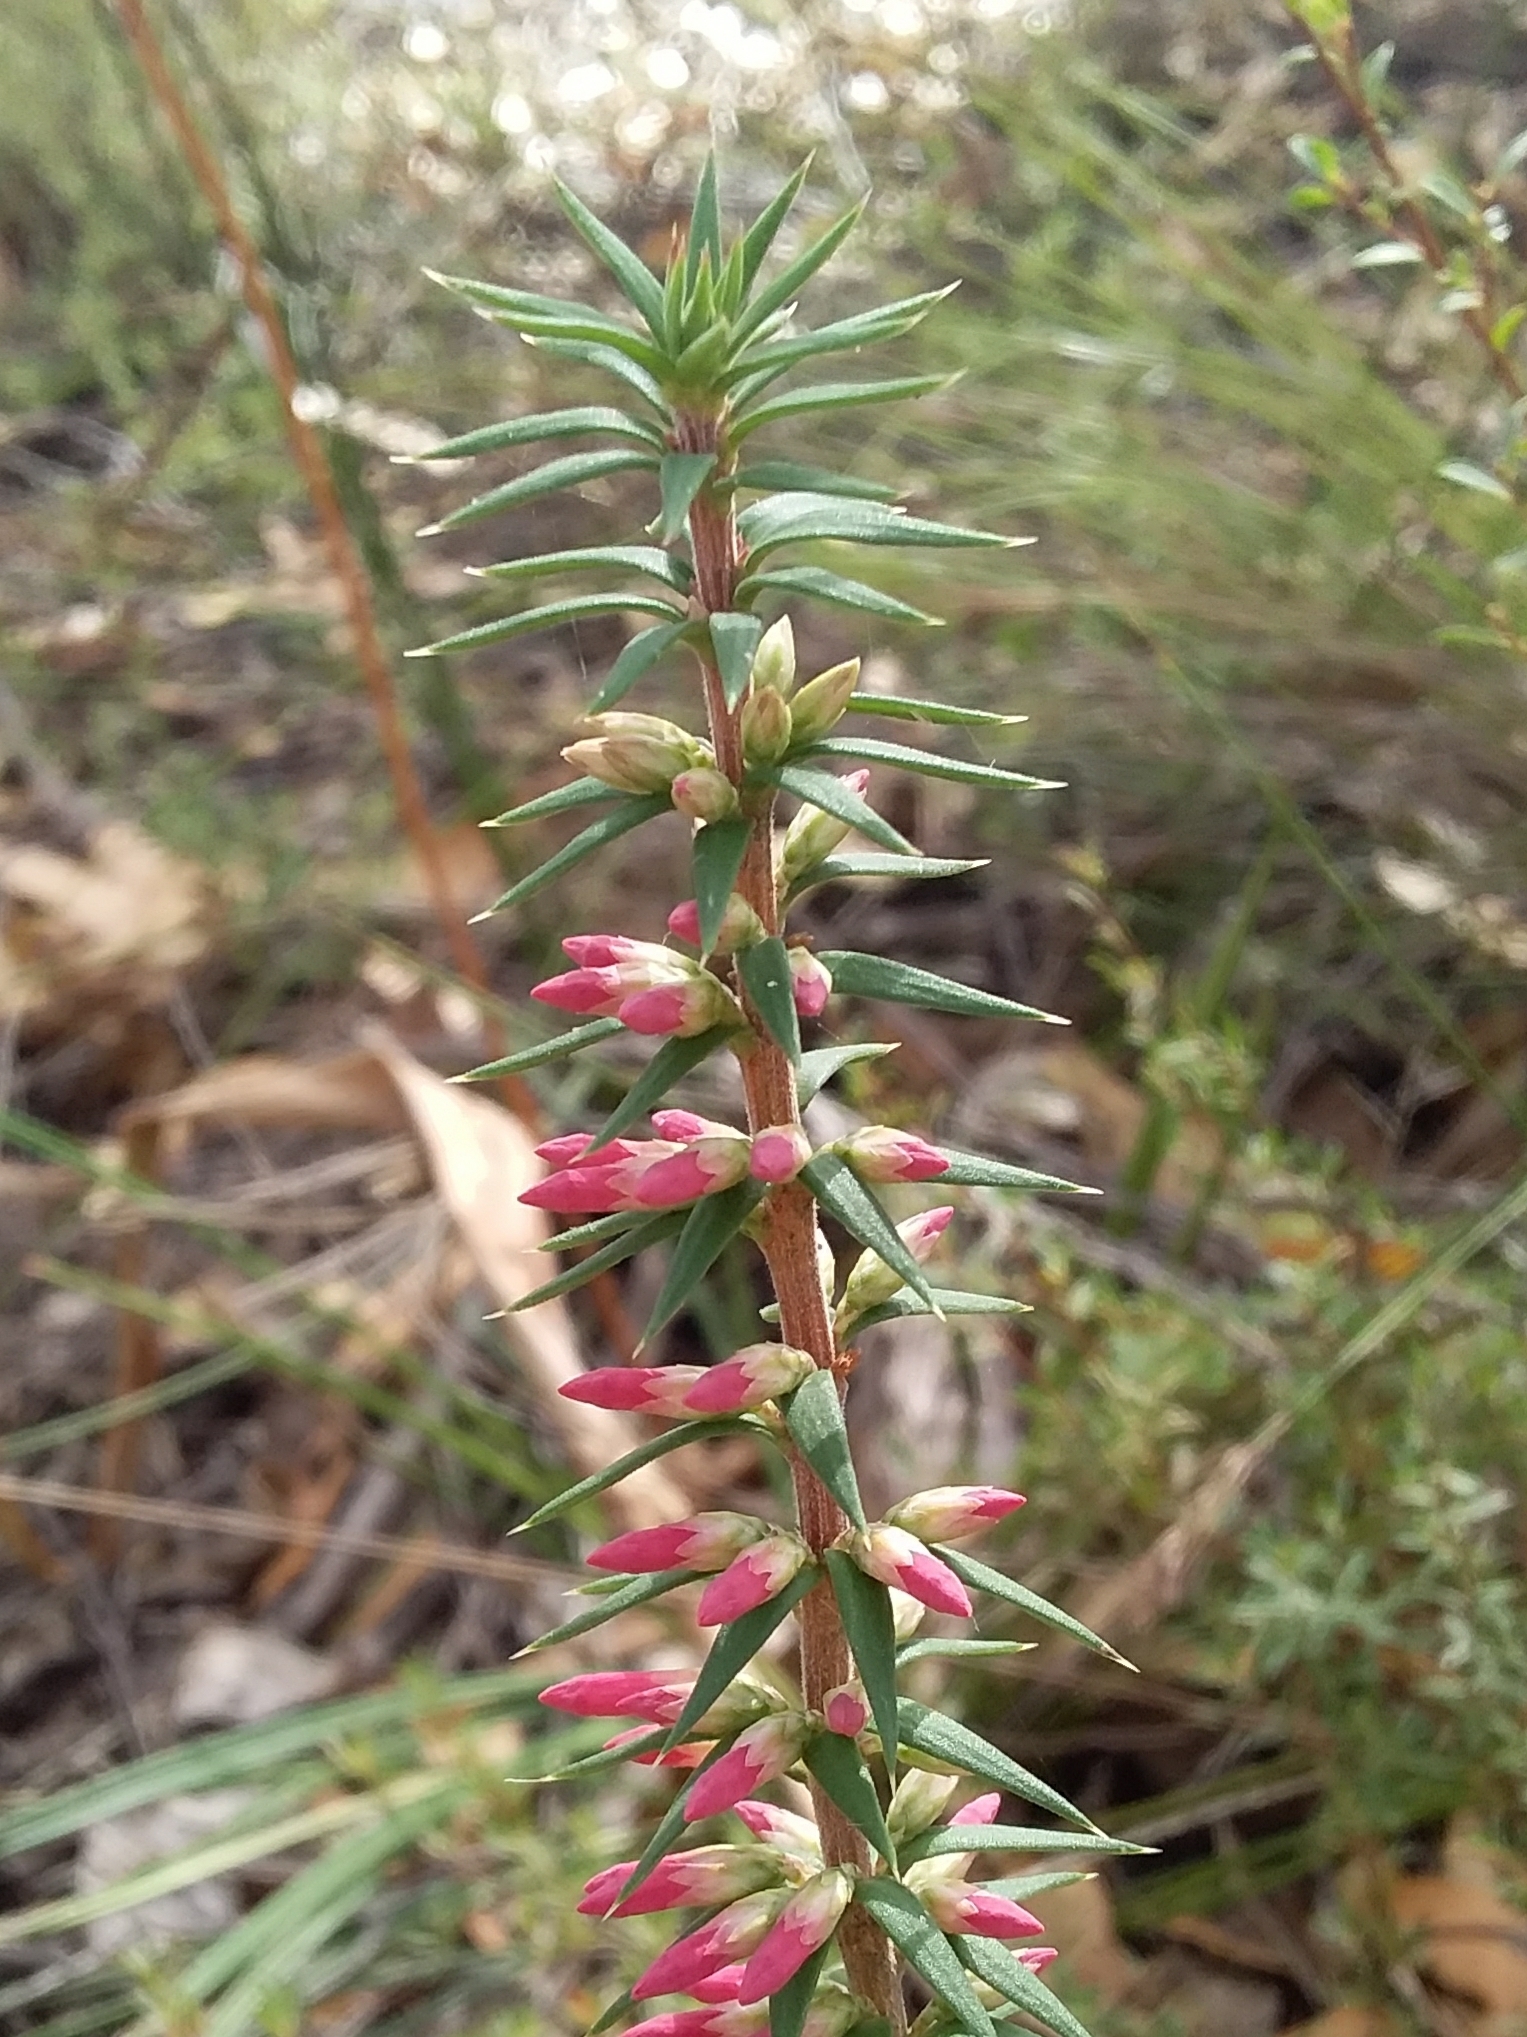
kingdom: Plantae
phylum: Tracheophyta
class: Magnoliopsida
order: Ericales
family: Ericaceae
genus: Epacris
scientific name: Epacris impressa
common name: Common-heath
